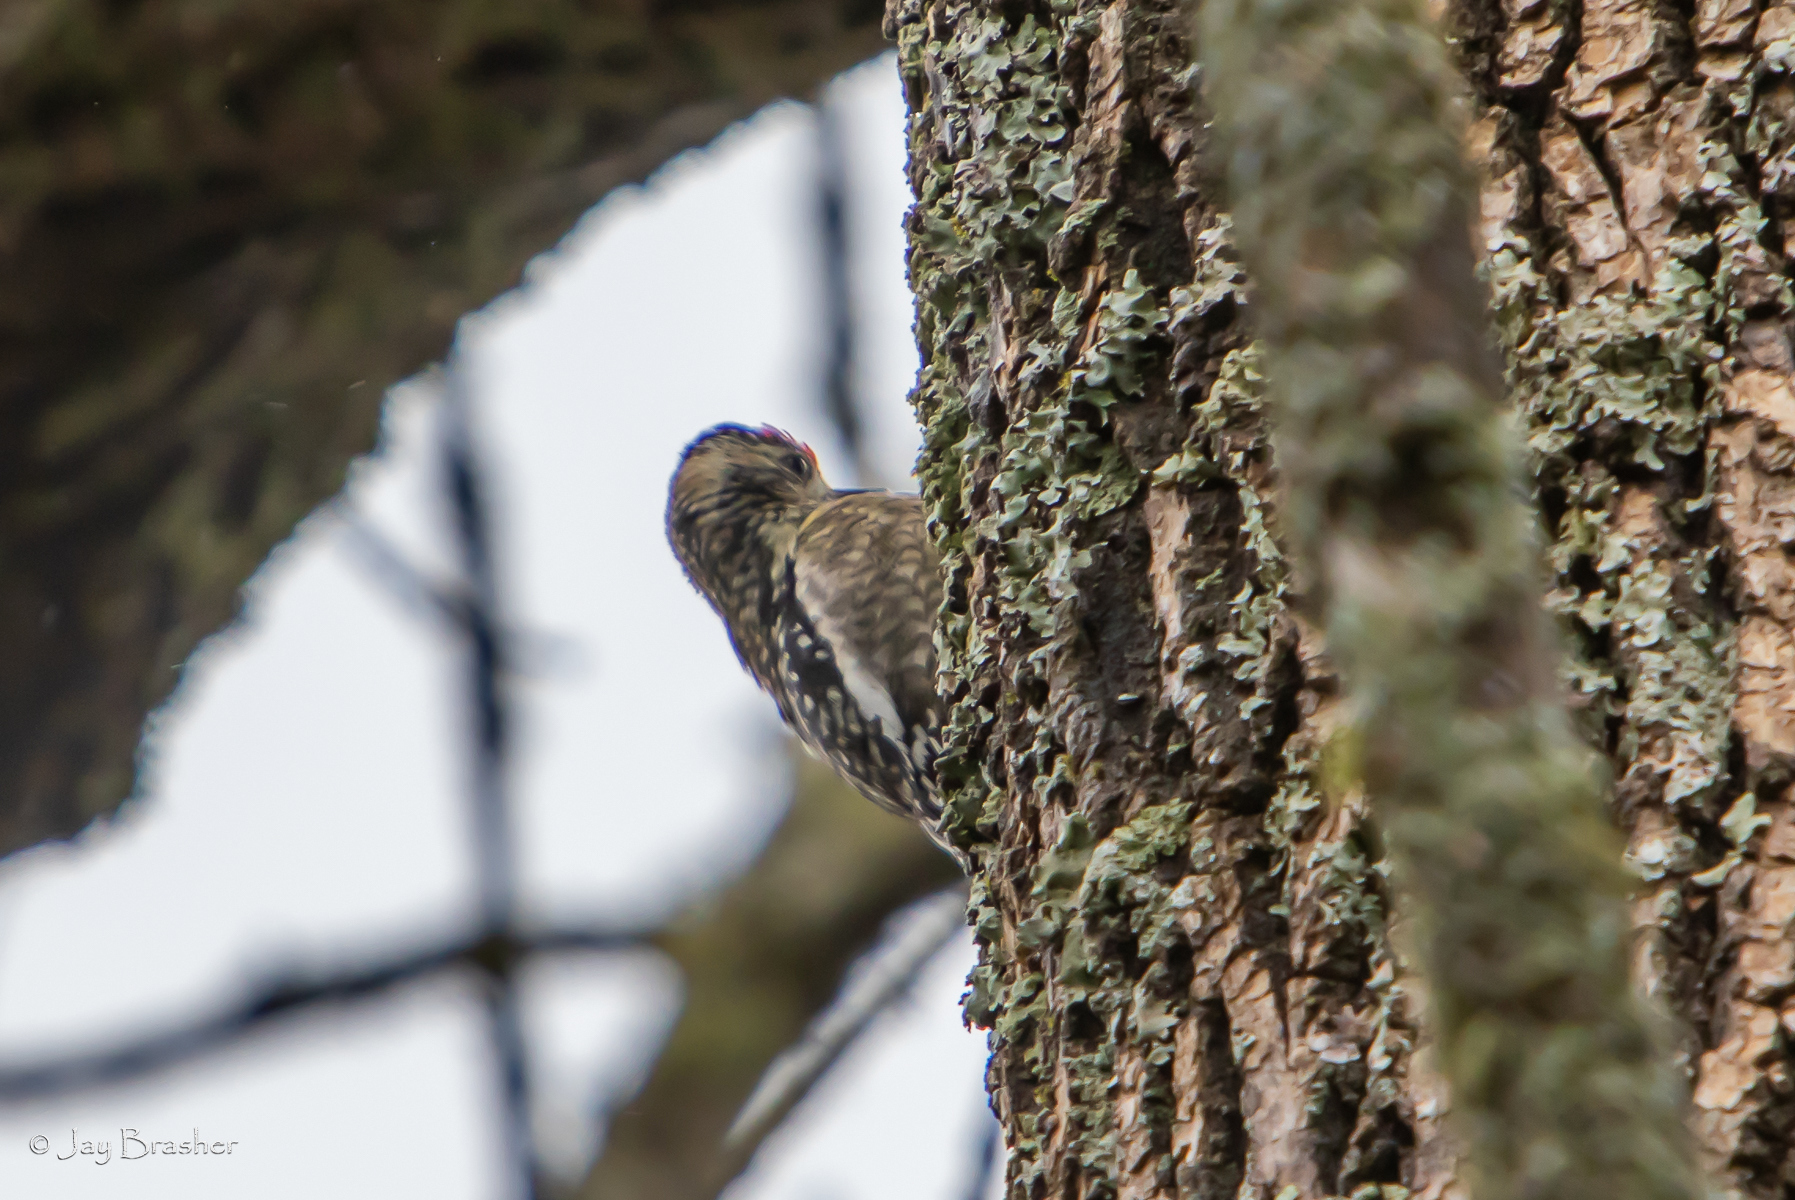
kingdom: Animalia
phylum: Chordata
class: Aves
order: Piciformes
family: Picidae
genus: Sphyrapicus
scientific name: Sphyrapicus varius
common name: Yellow-bellied sapsucker
